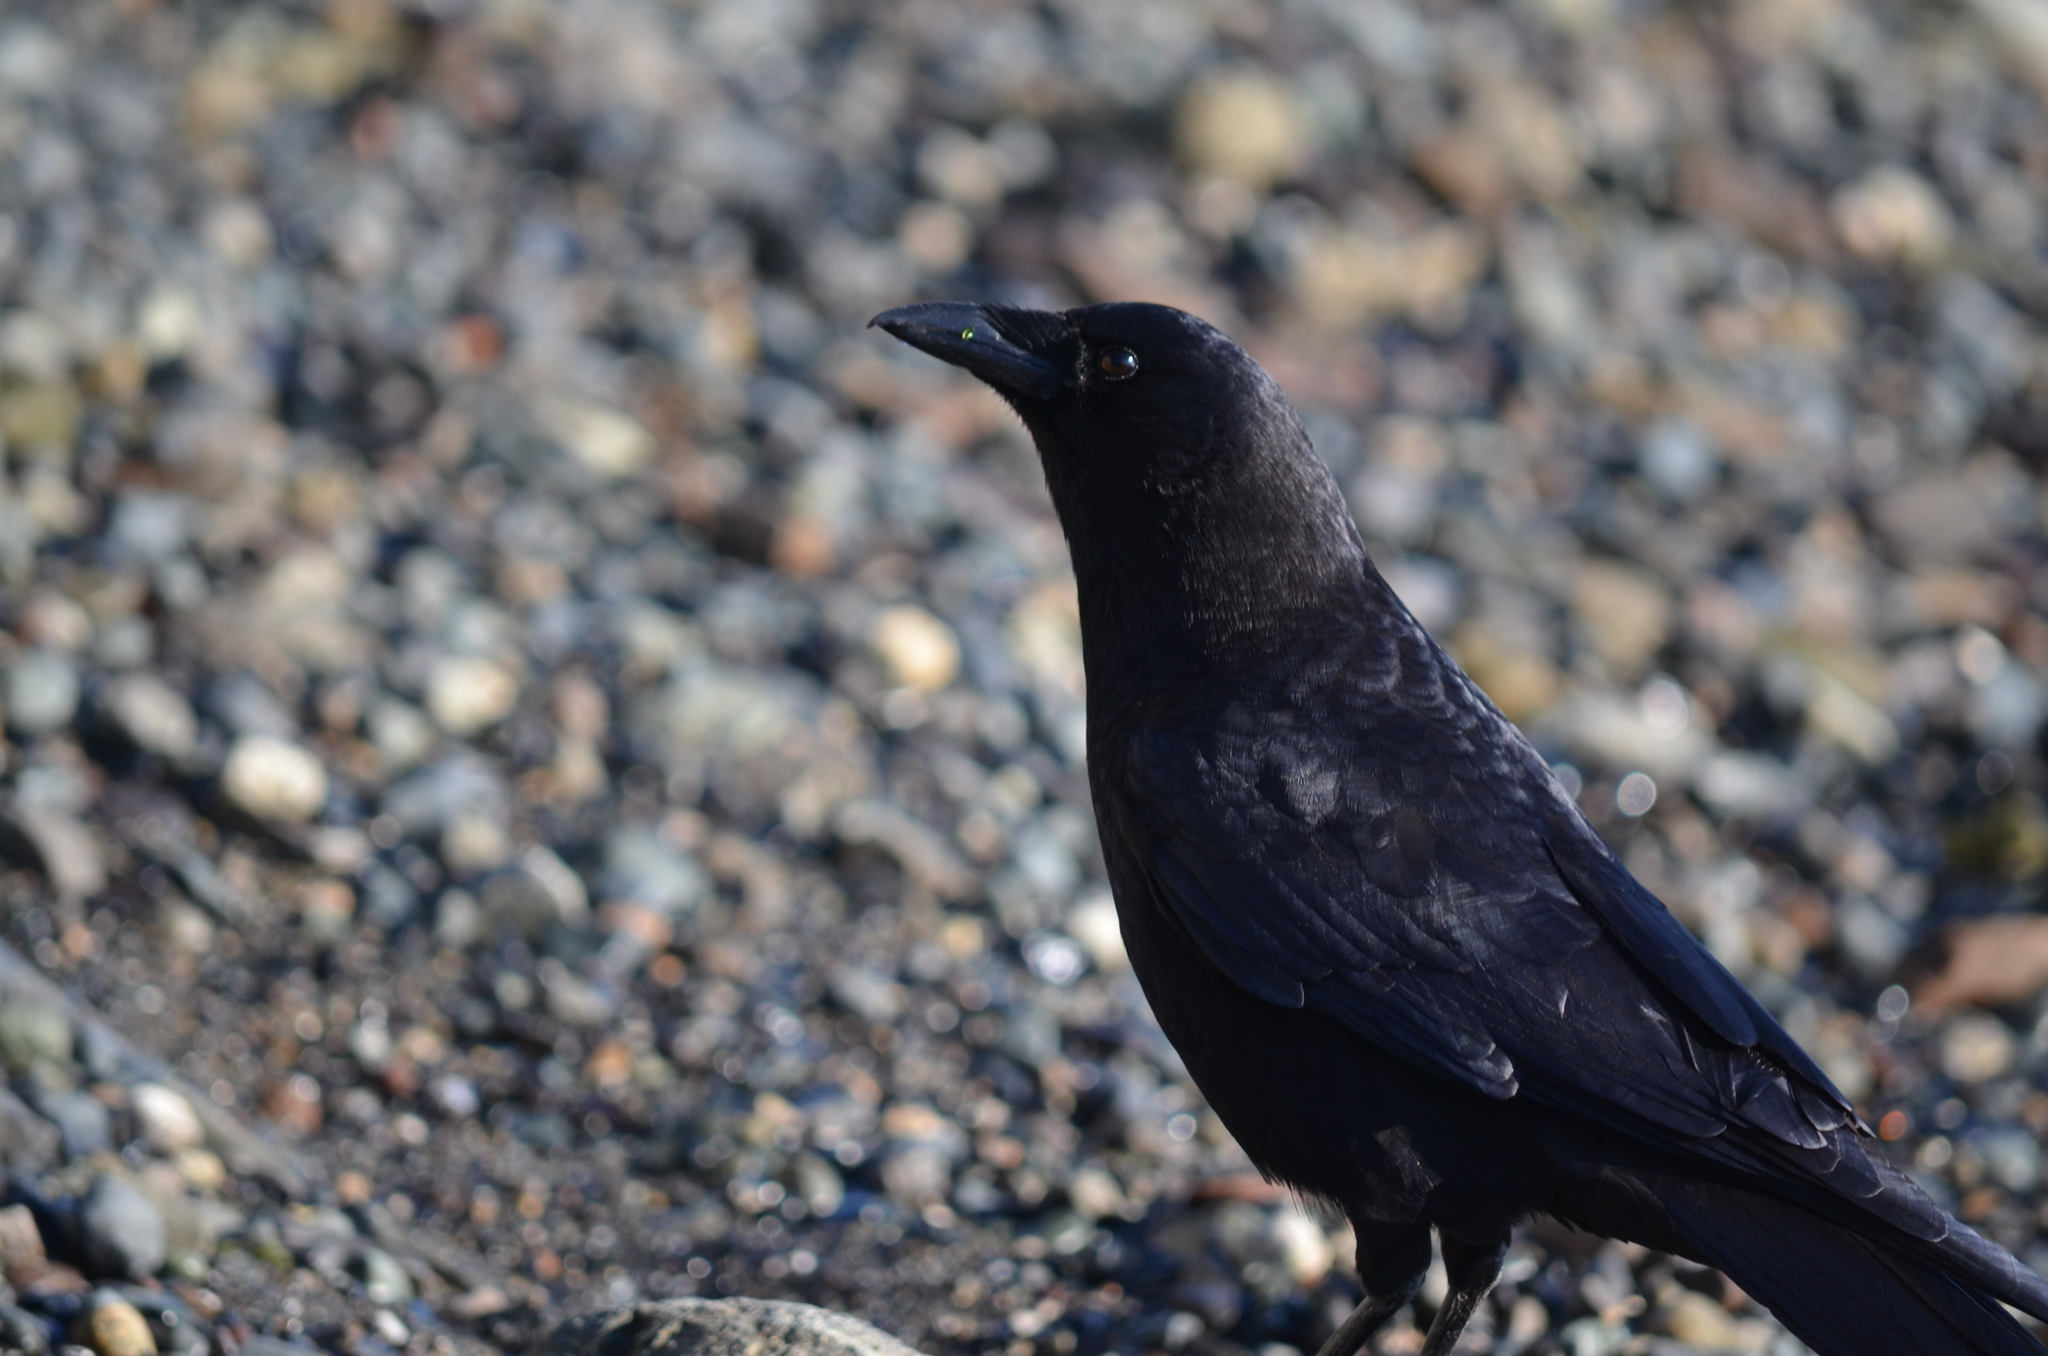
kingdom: Animalia
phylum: Chordata
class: Aves
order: Passeriformes
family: Corvidae
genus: Corvus
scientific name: Corvus brachyrhynchos
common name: American crow
